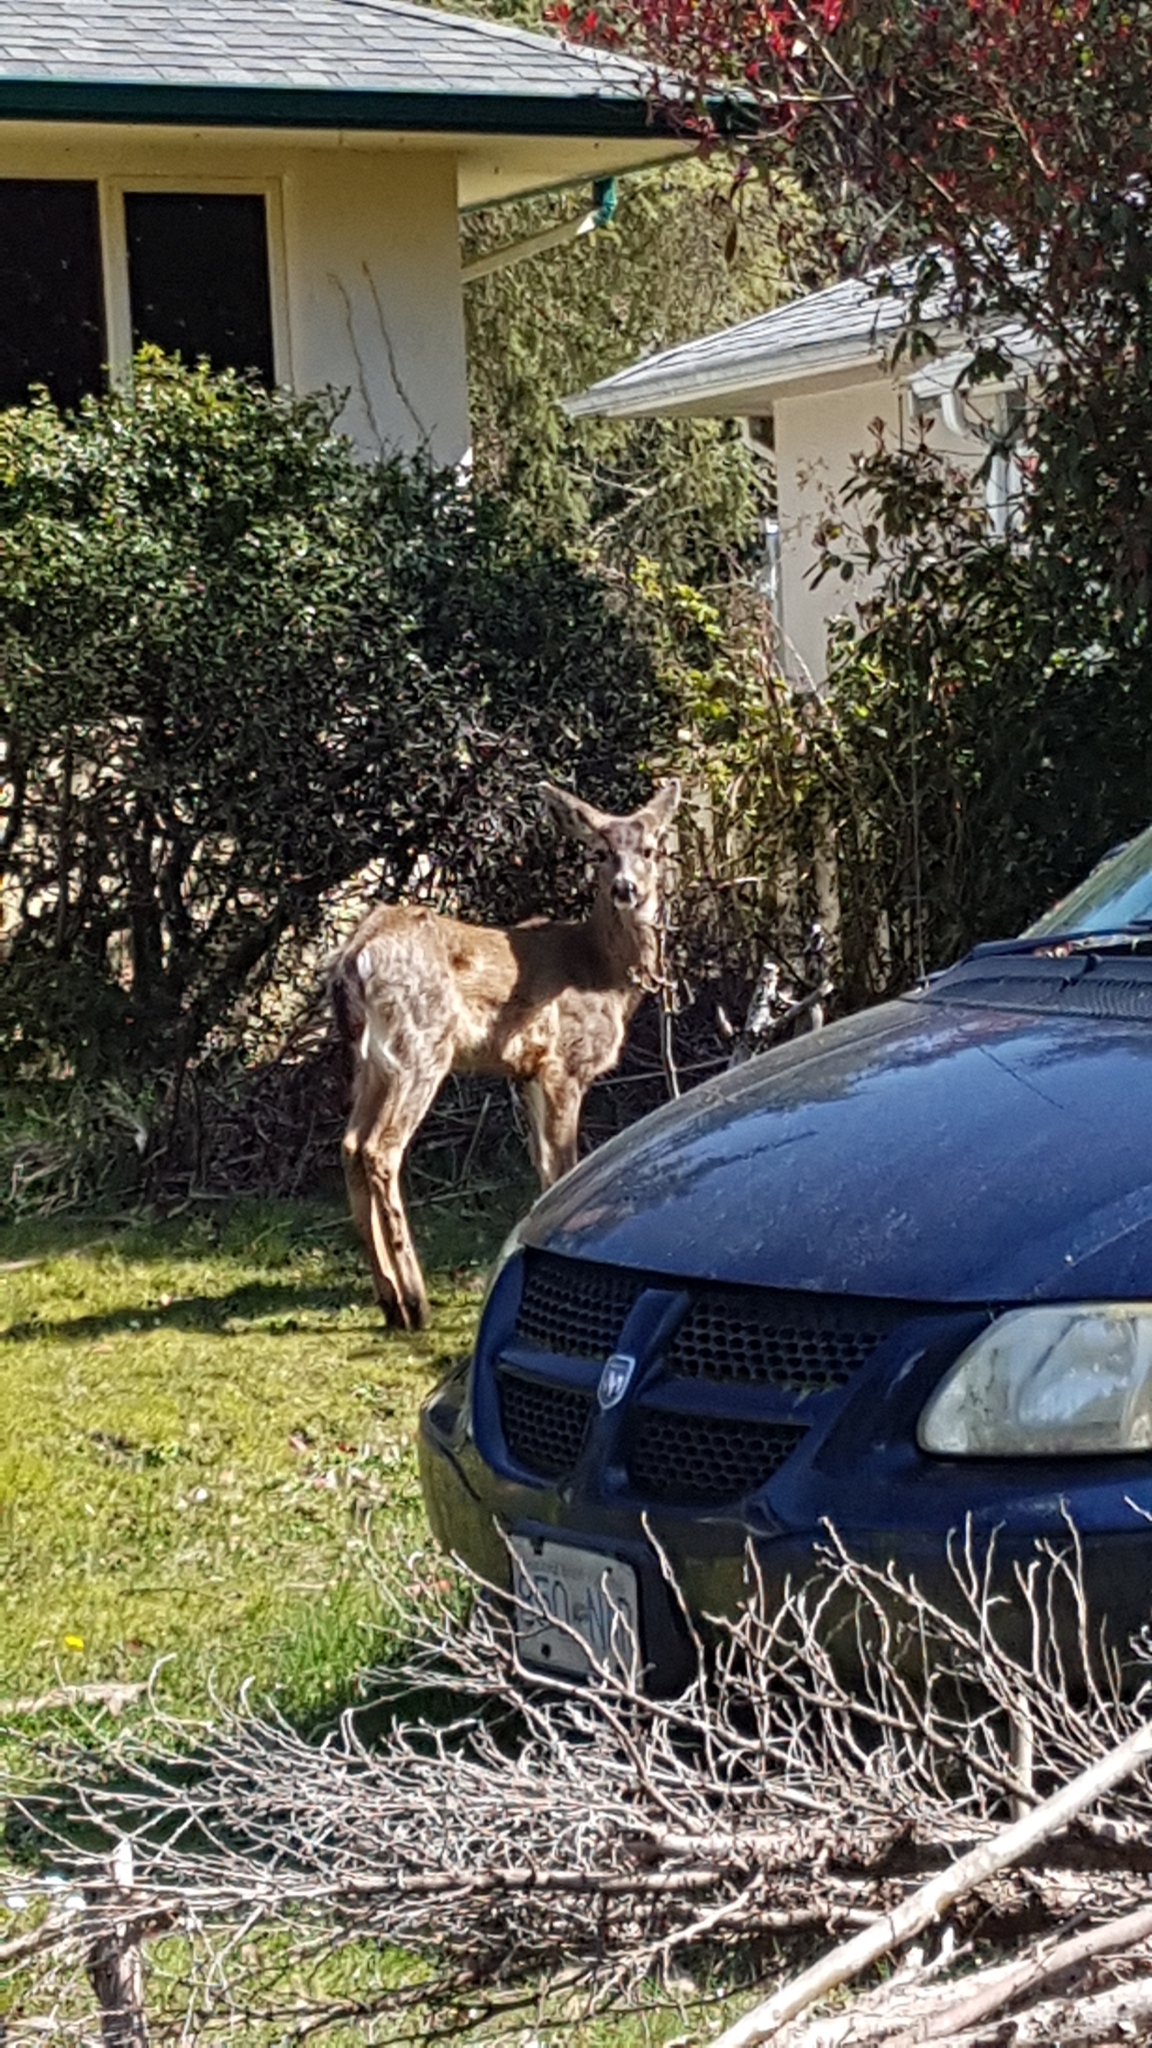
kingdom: Animalia
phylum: Chordata
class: Mammalia
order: Artiodactyla
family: Cervidae
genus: Odocoileus
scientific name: Odocoileus hemionus
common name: Mule deer
